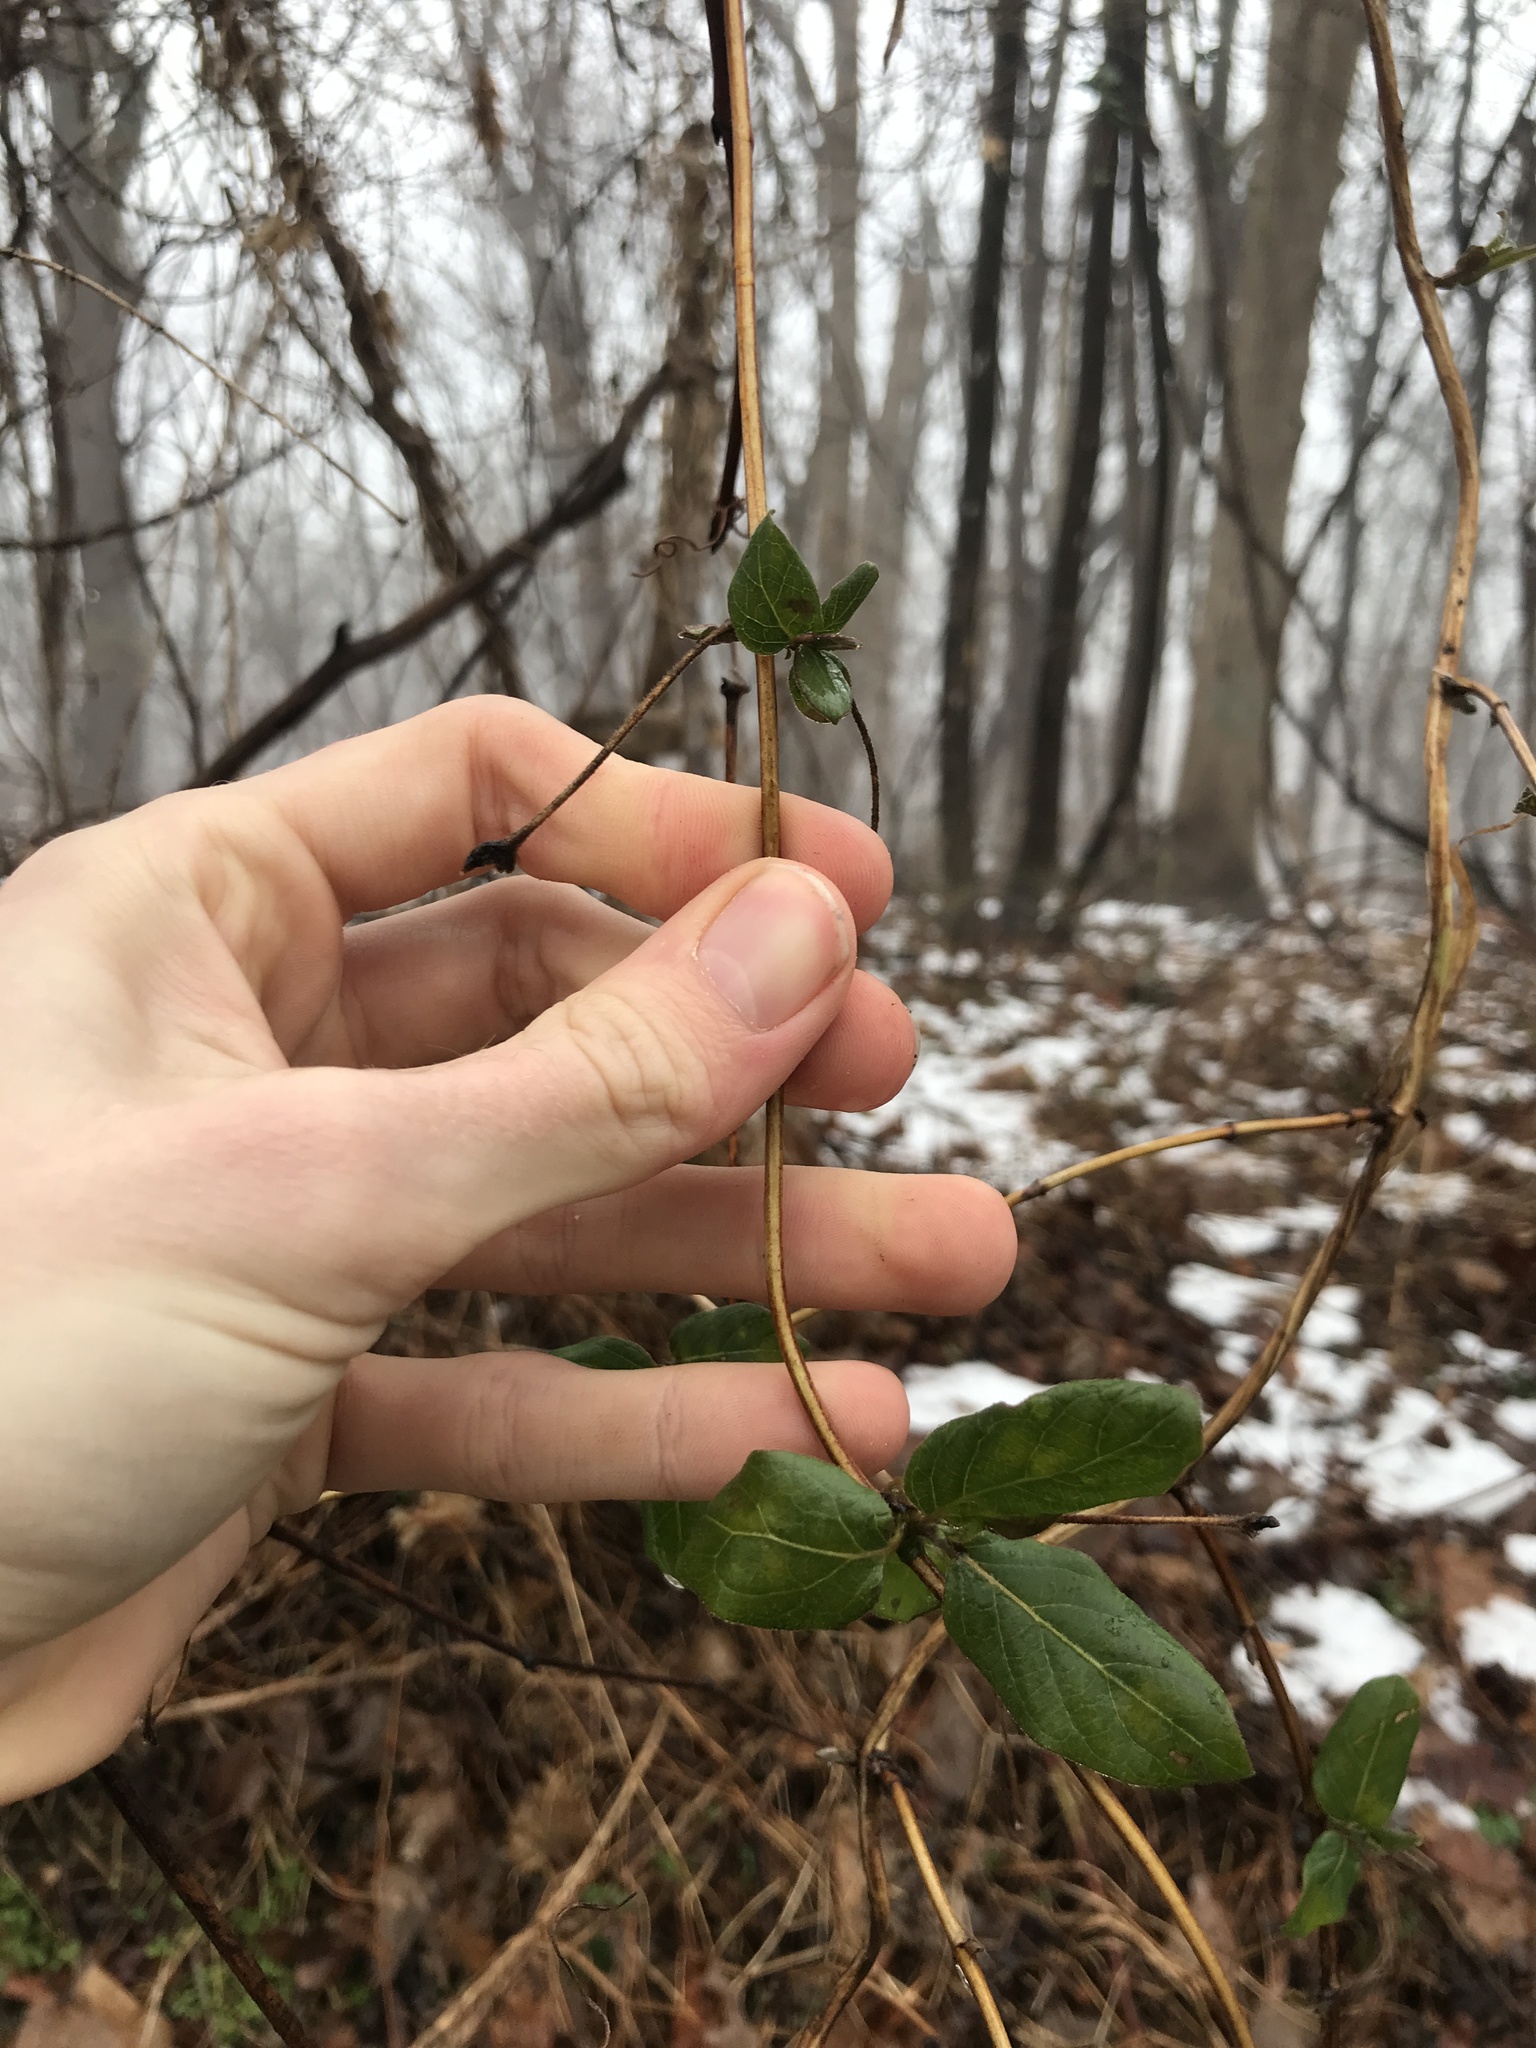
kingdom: Plantae
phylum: Tracheophyta
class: Magnoliopsida
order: Dipsacales
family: Caprifoliaceae
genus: Lonicera
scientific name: Lonicera japonica
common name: Japanese honeysuckle
